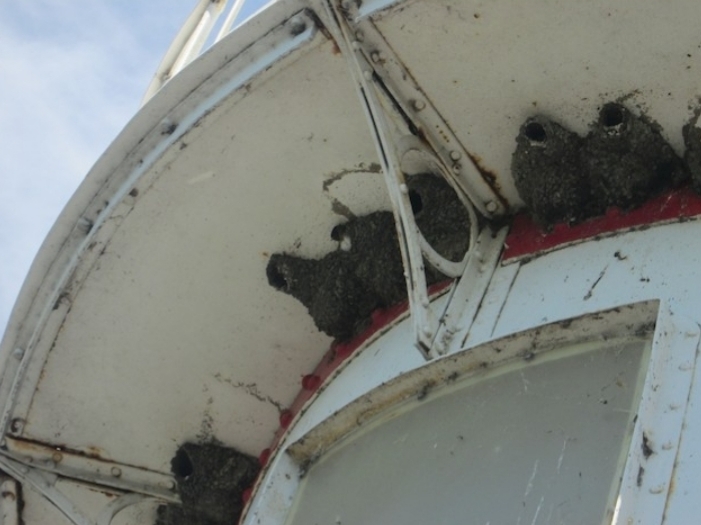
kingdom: Animalia
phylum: Chordata
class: Aves
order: Passeriformes
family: Hirundinidae
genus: Petrochelidon
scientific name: Petrochelidon pyrrhonota
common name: American cliff swallow
